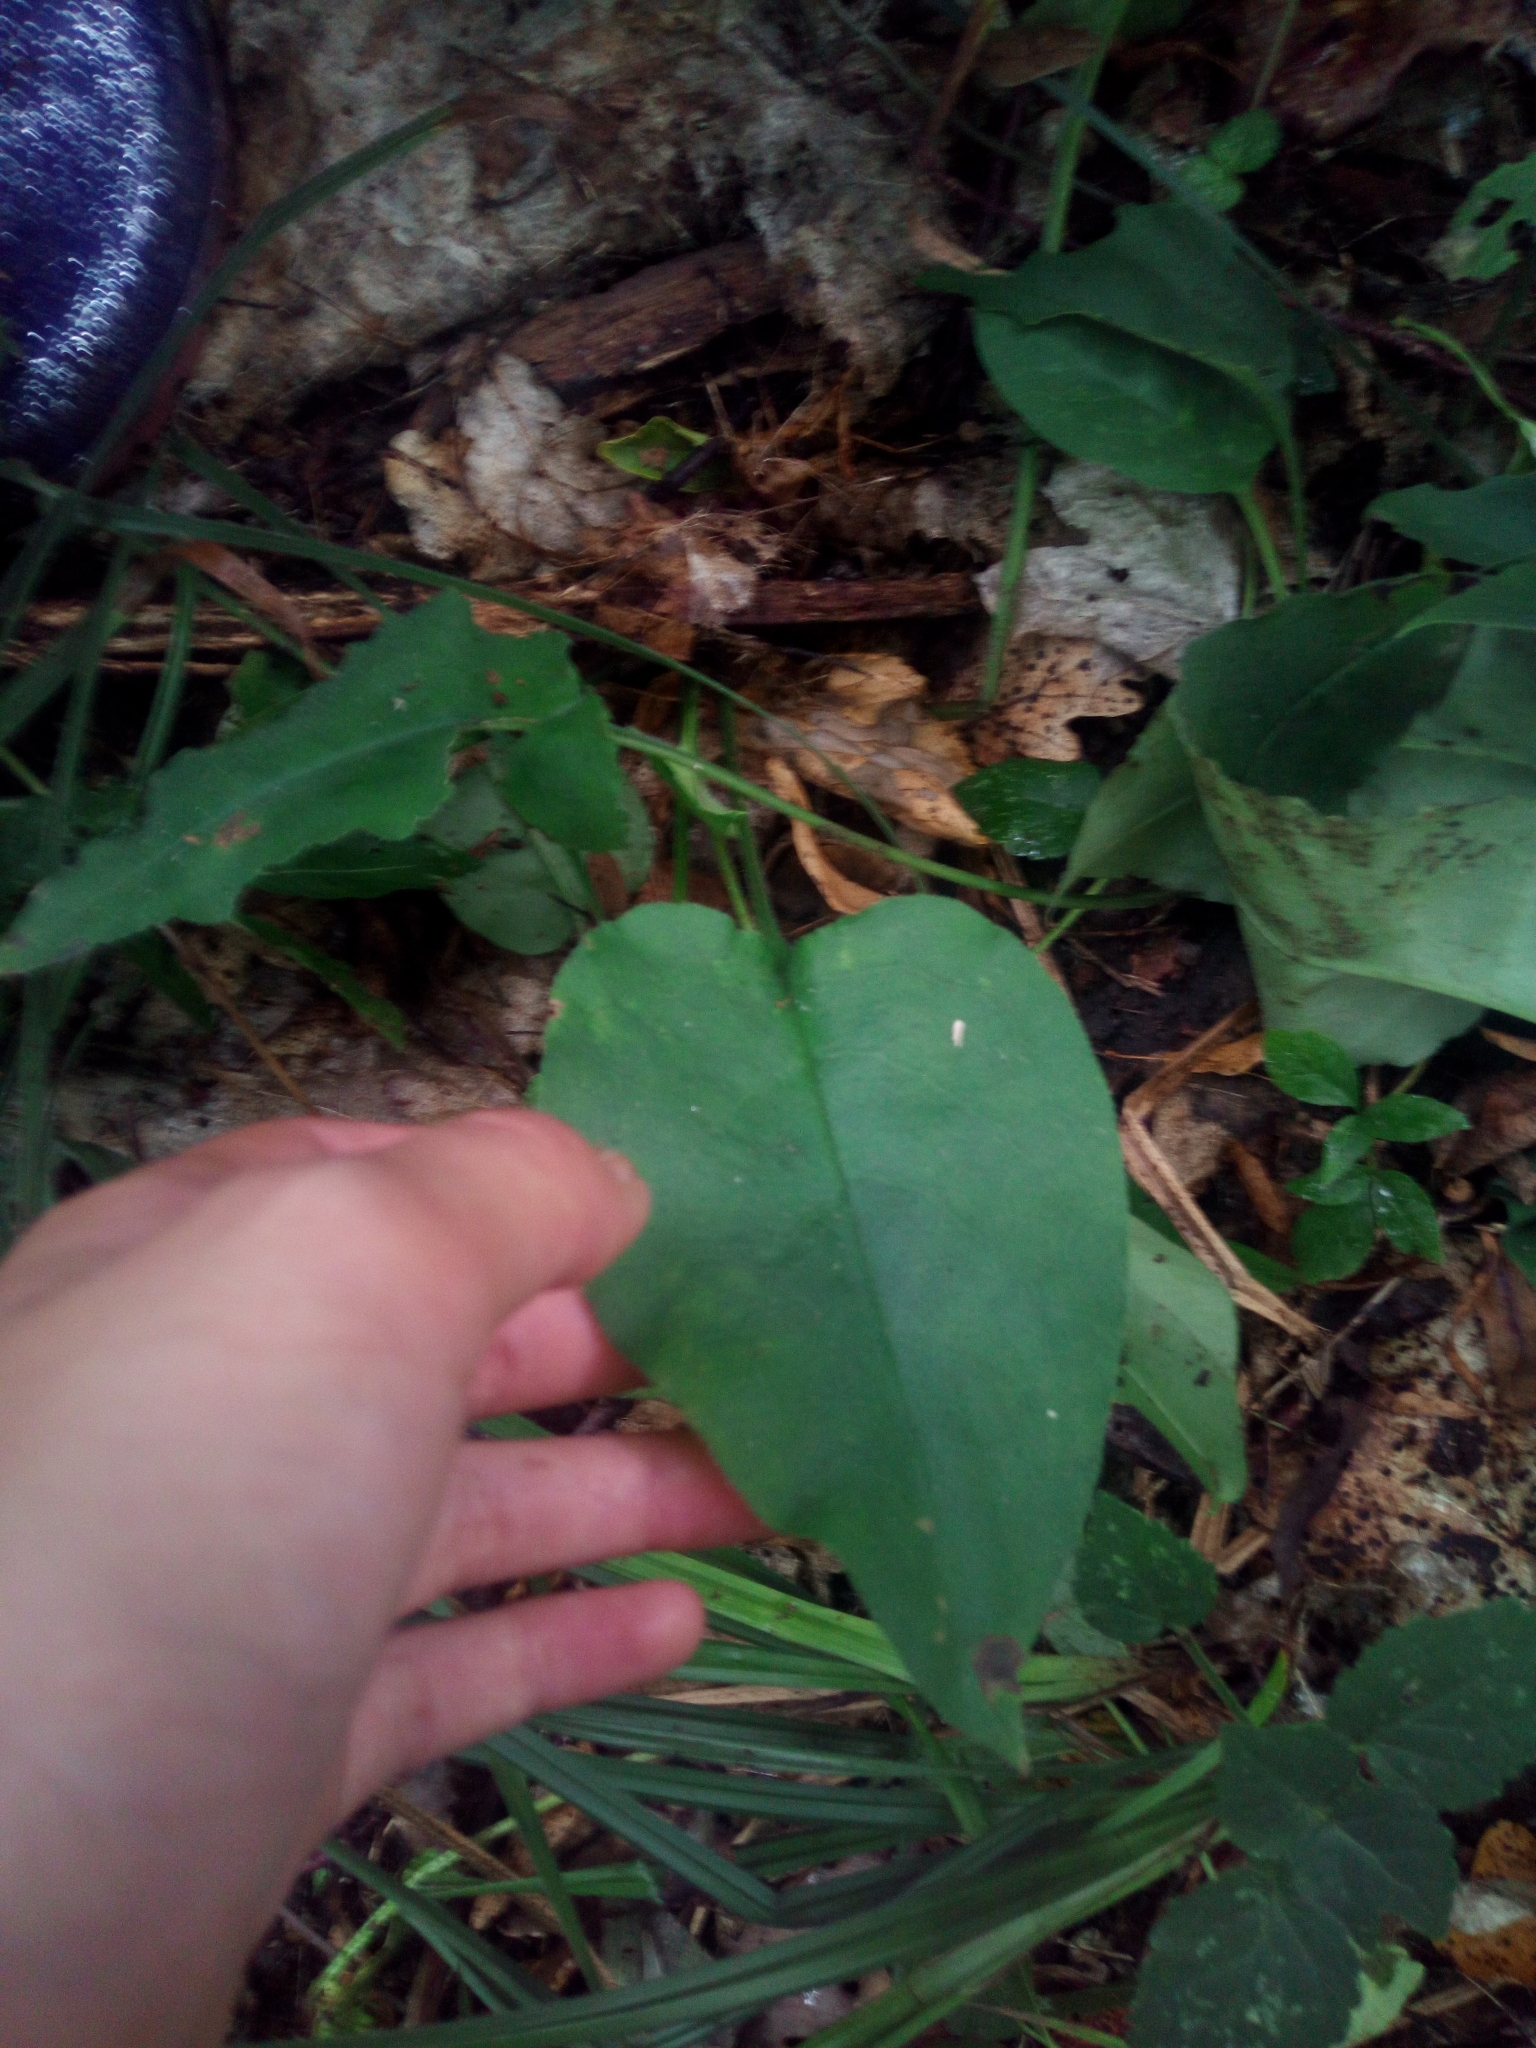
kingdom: Plantae
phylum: Tracheophyta
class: Magnoliopsida
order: Boraginales
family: Boraginaceae
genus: Pulmonaria
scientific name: Pulmonaria obscura
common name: Suffolk lungwort
